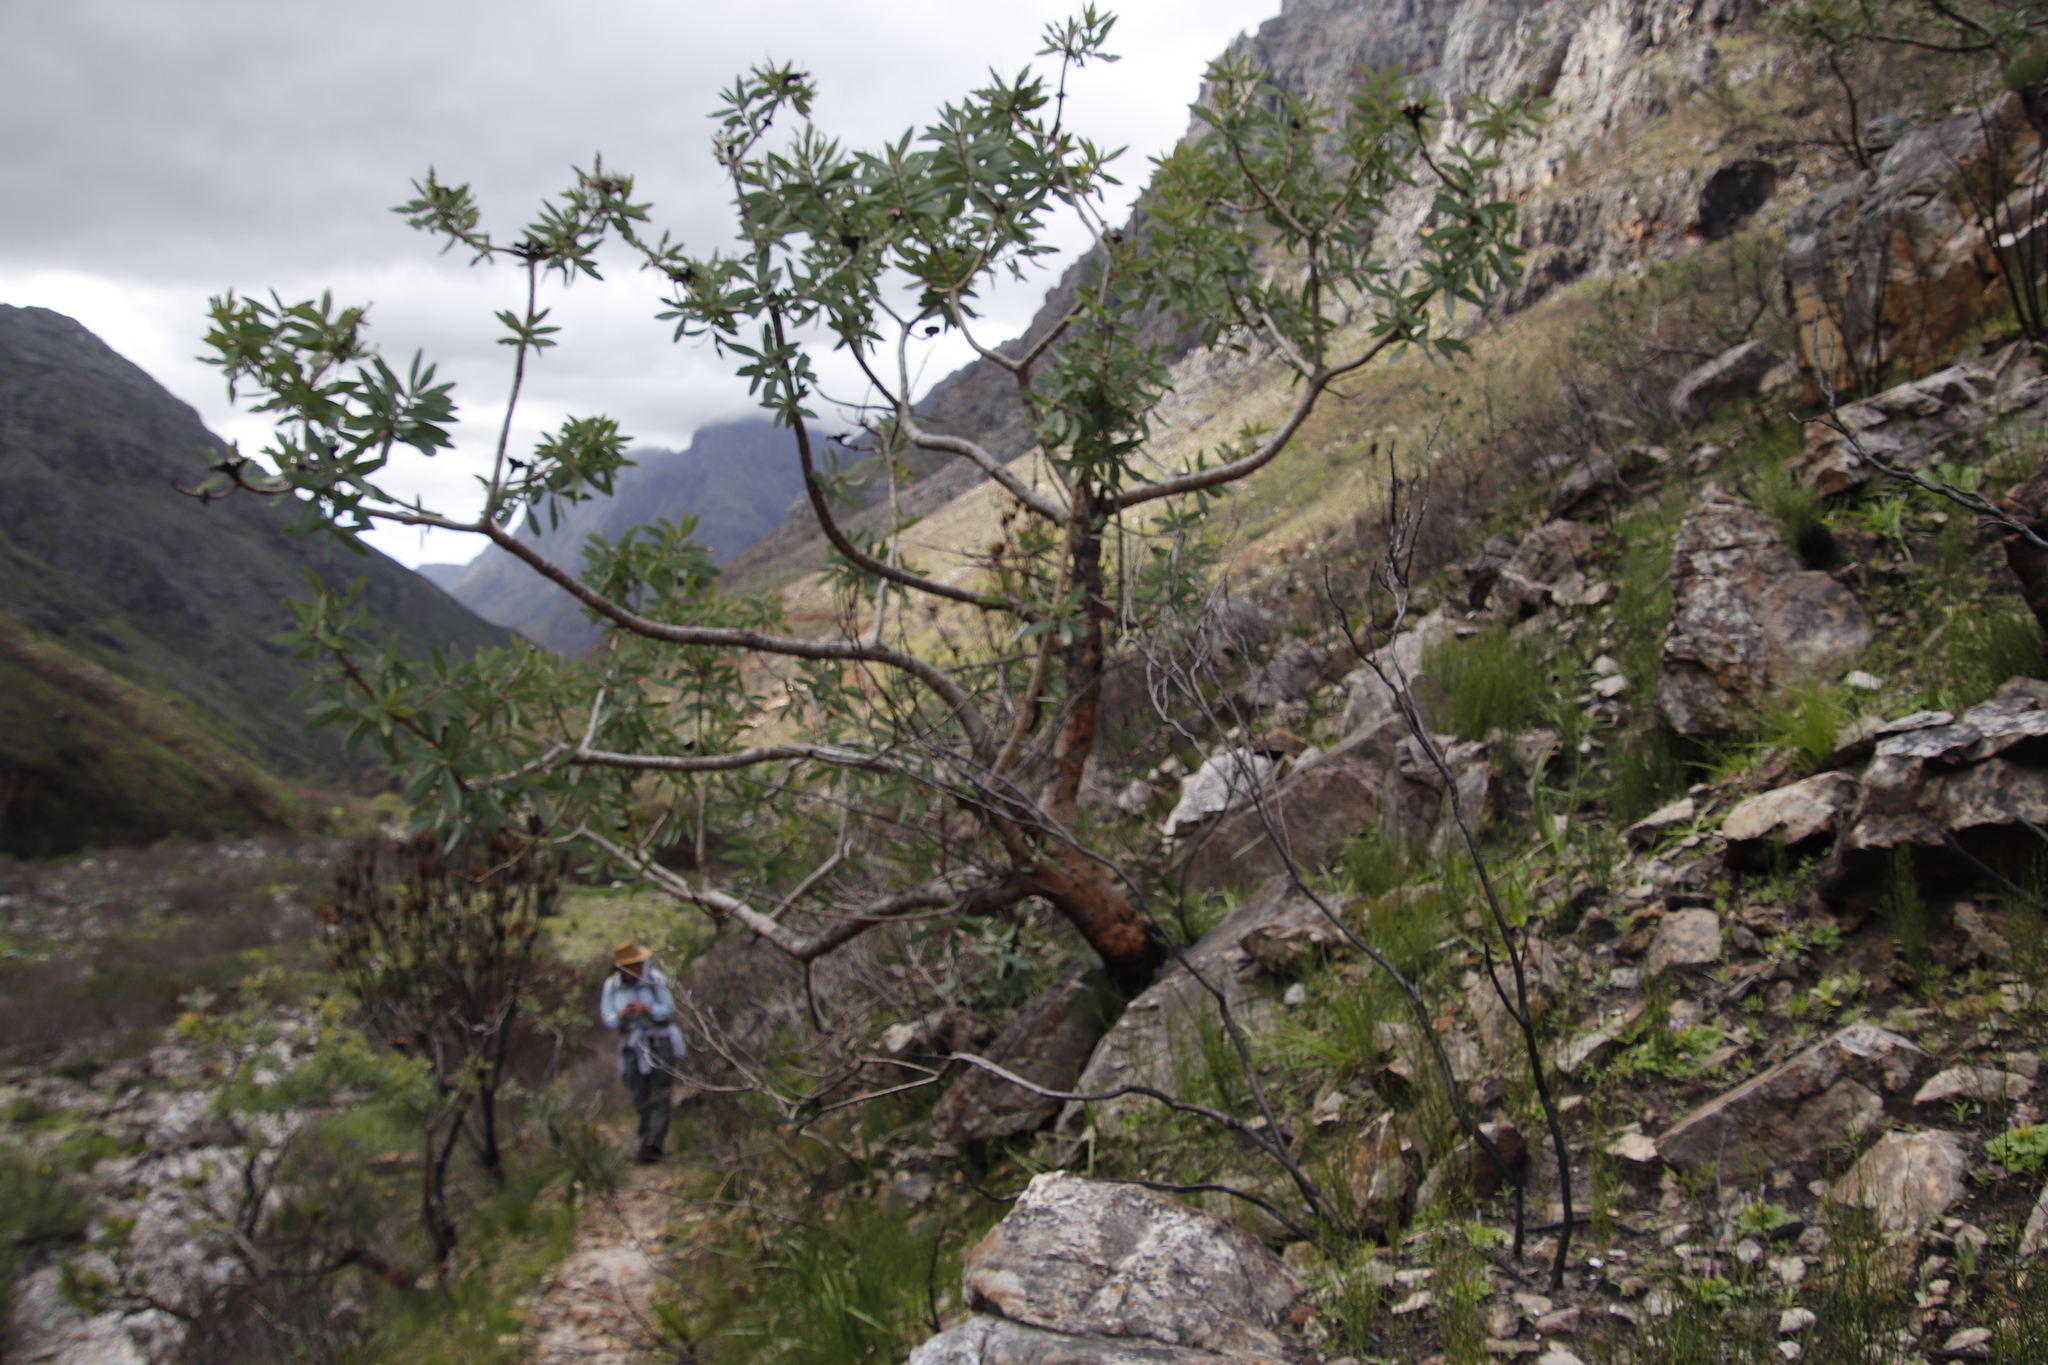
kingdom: Plantae
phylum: Tracheophyta
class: Magnoliopsida
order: Proteales
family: Proteaceae
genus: Protea
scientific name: Protea nitida
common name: Tree protea
